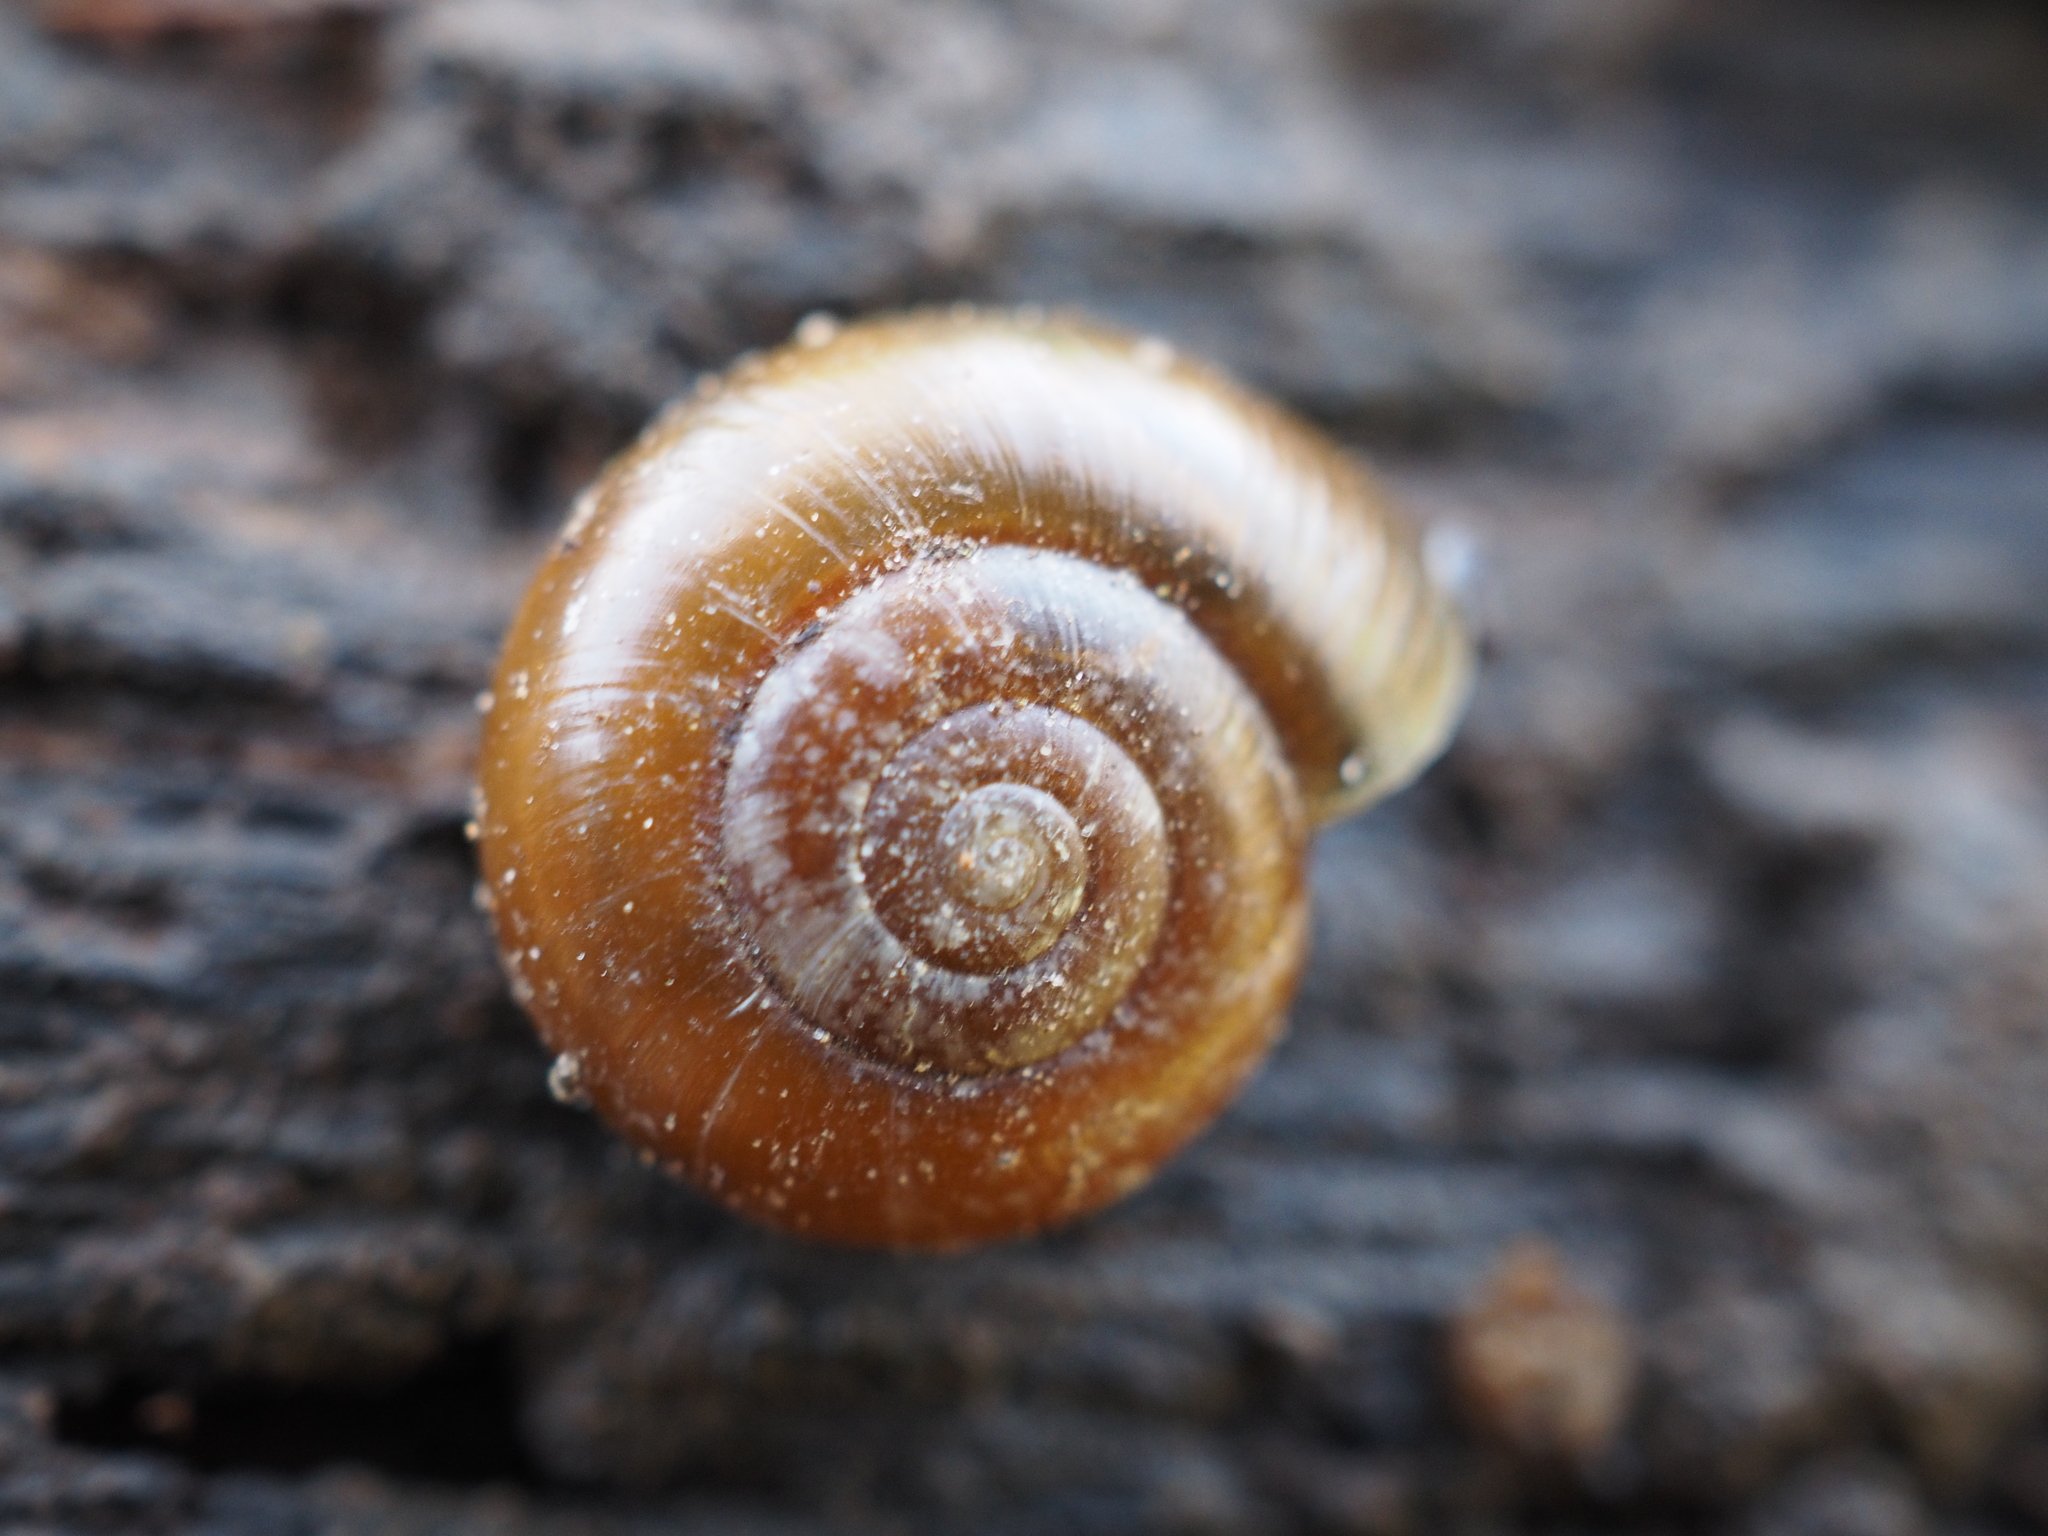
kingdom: Animalia
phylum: Mollusca
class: Gastropoda
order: Stylommatophora
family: Gastrodontidae
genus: Aegopinella
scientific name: Aegopinella nitidula
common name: Smooth glass snail
